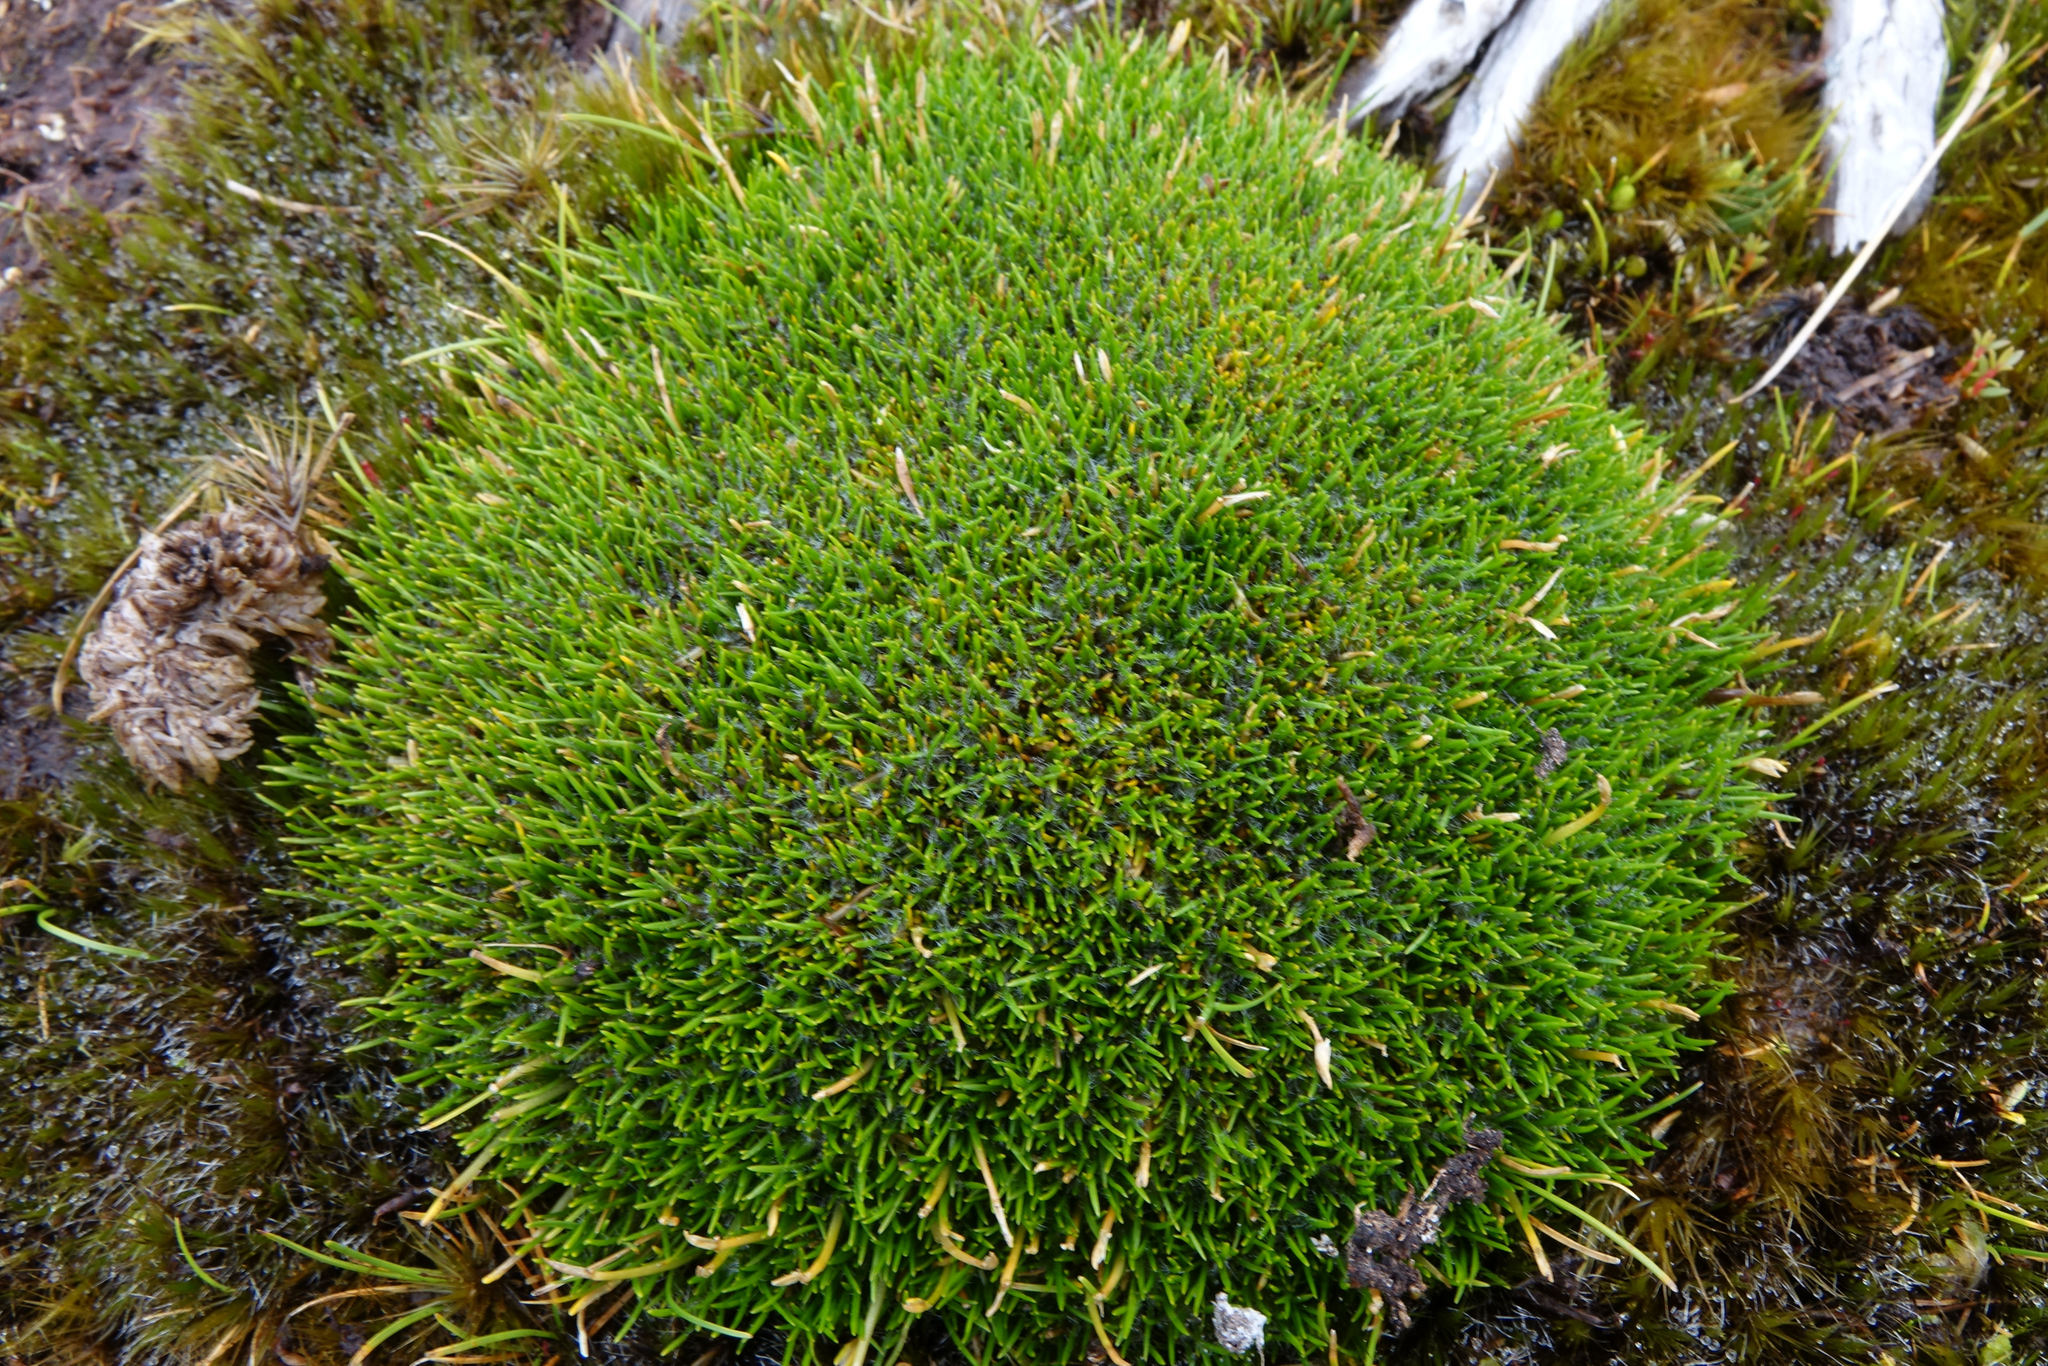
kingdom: Plantae
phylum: Tracheophyta
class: Liliopsida
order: Poales
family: Restionaceae
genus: Centrolepis
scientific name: Centrolepis ciliata
